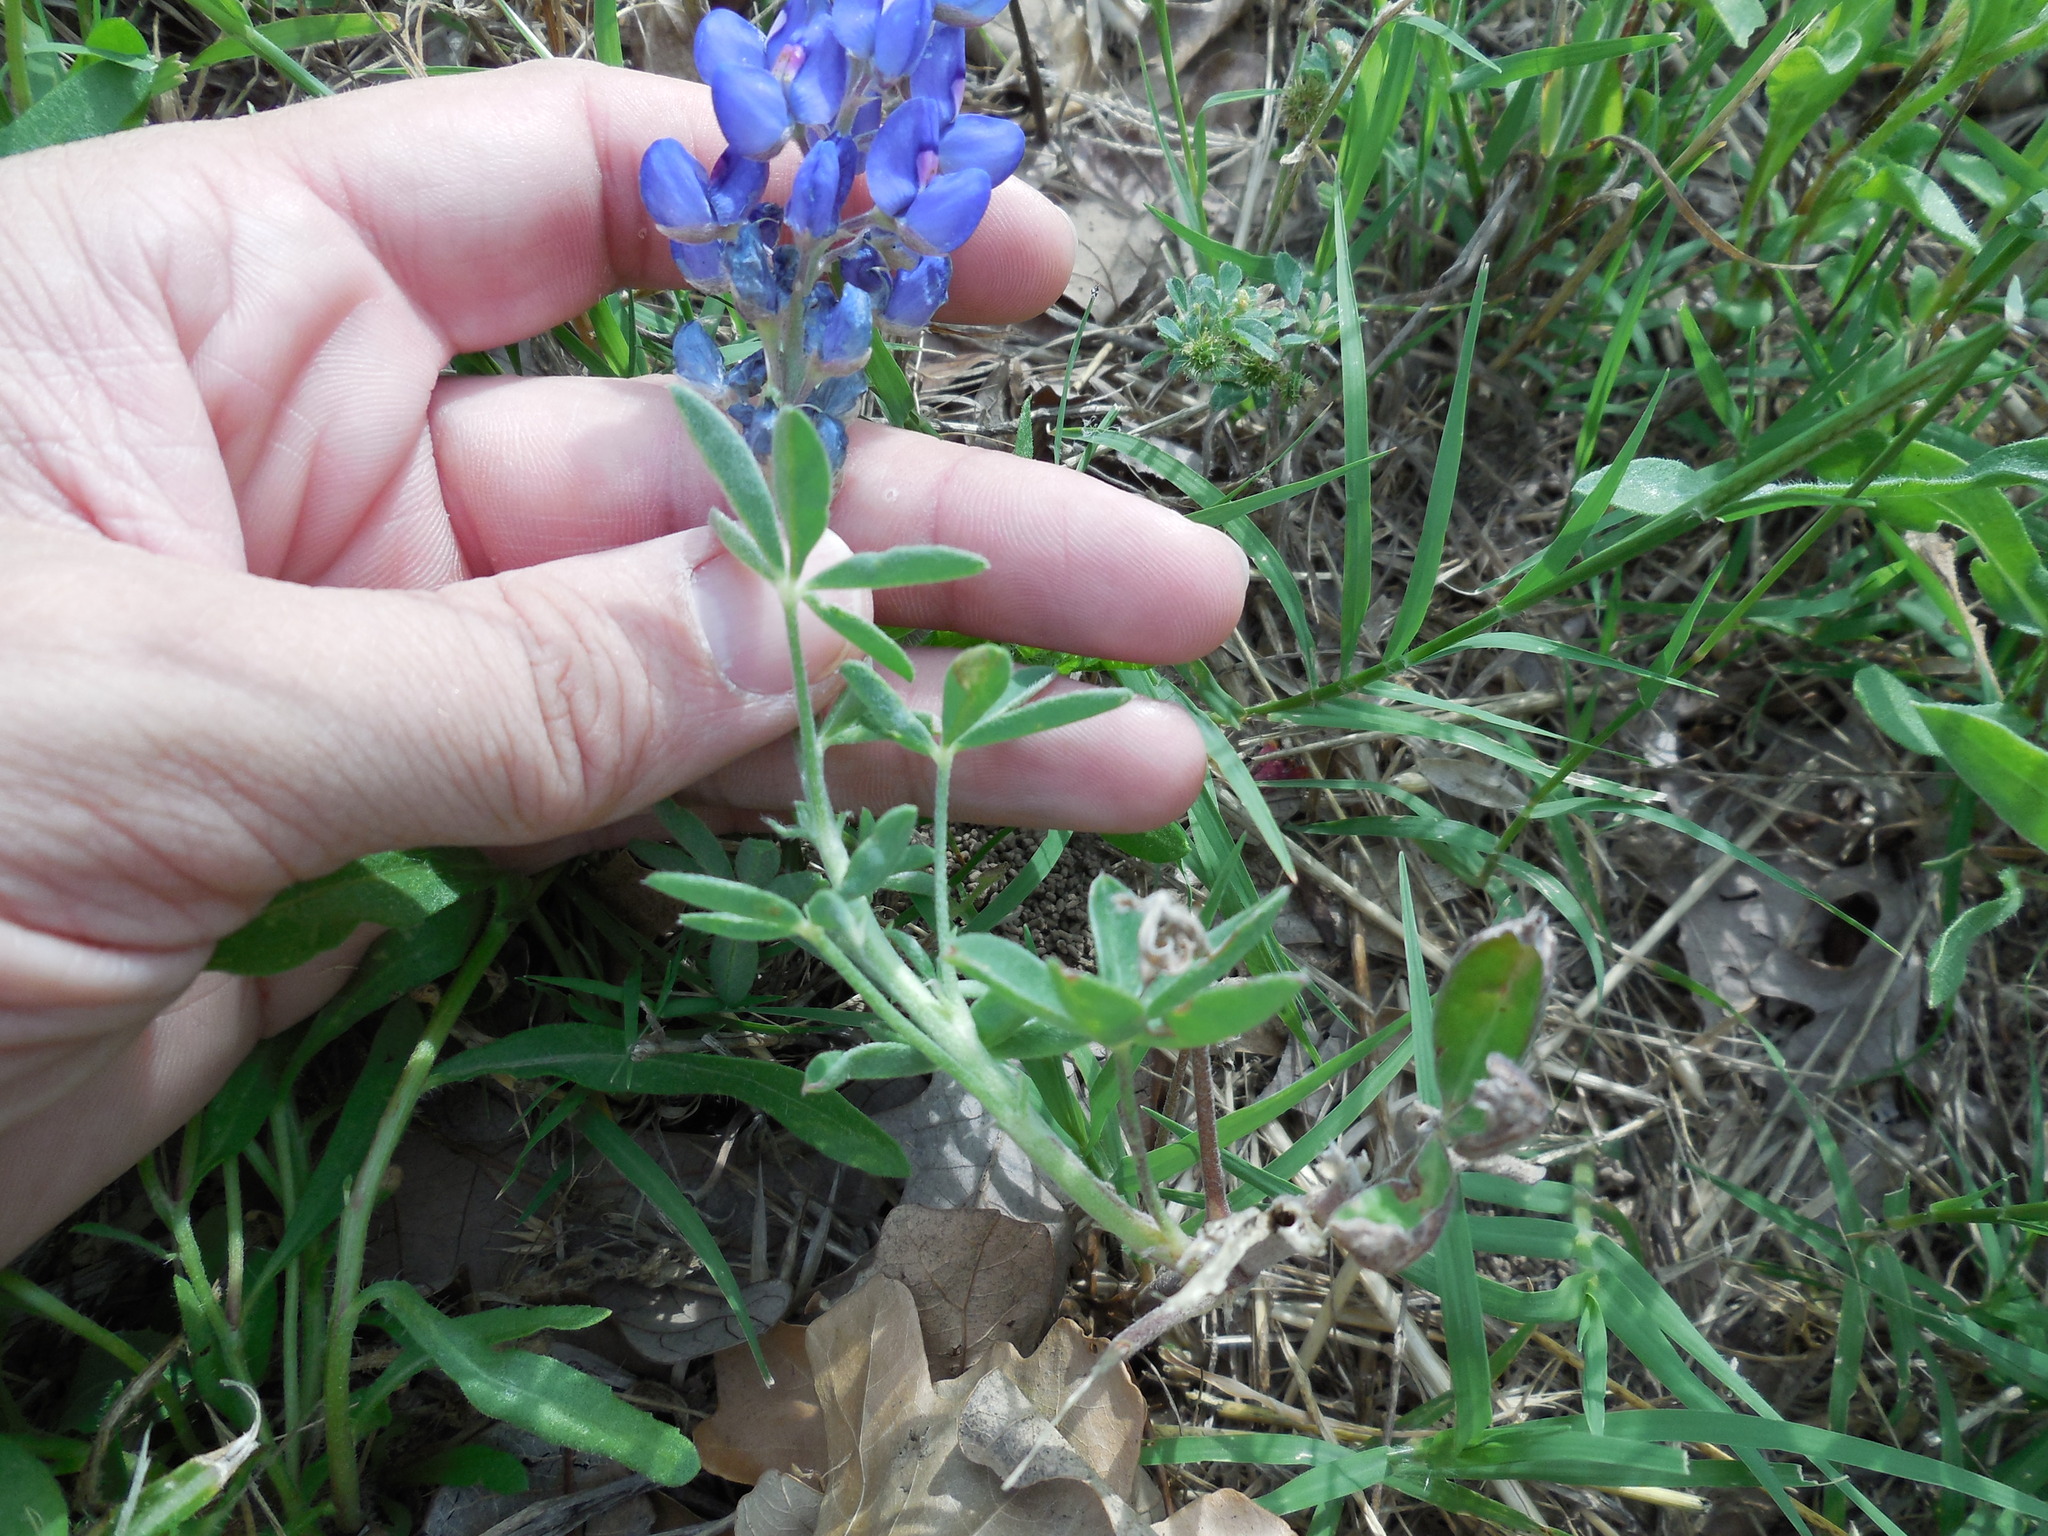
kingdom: Plantae
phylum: Tracheophyta
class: Magnoliopsida
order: Fabales
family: Fabaceae
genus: Lupinus
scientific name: Lupinus texensis
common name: Texas bluebonnet
